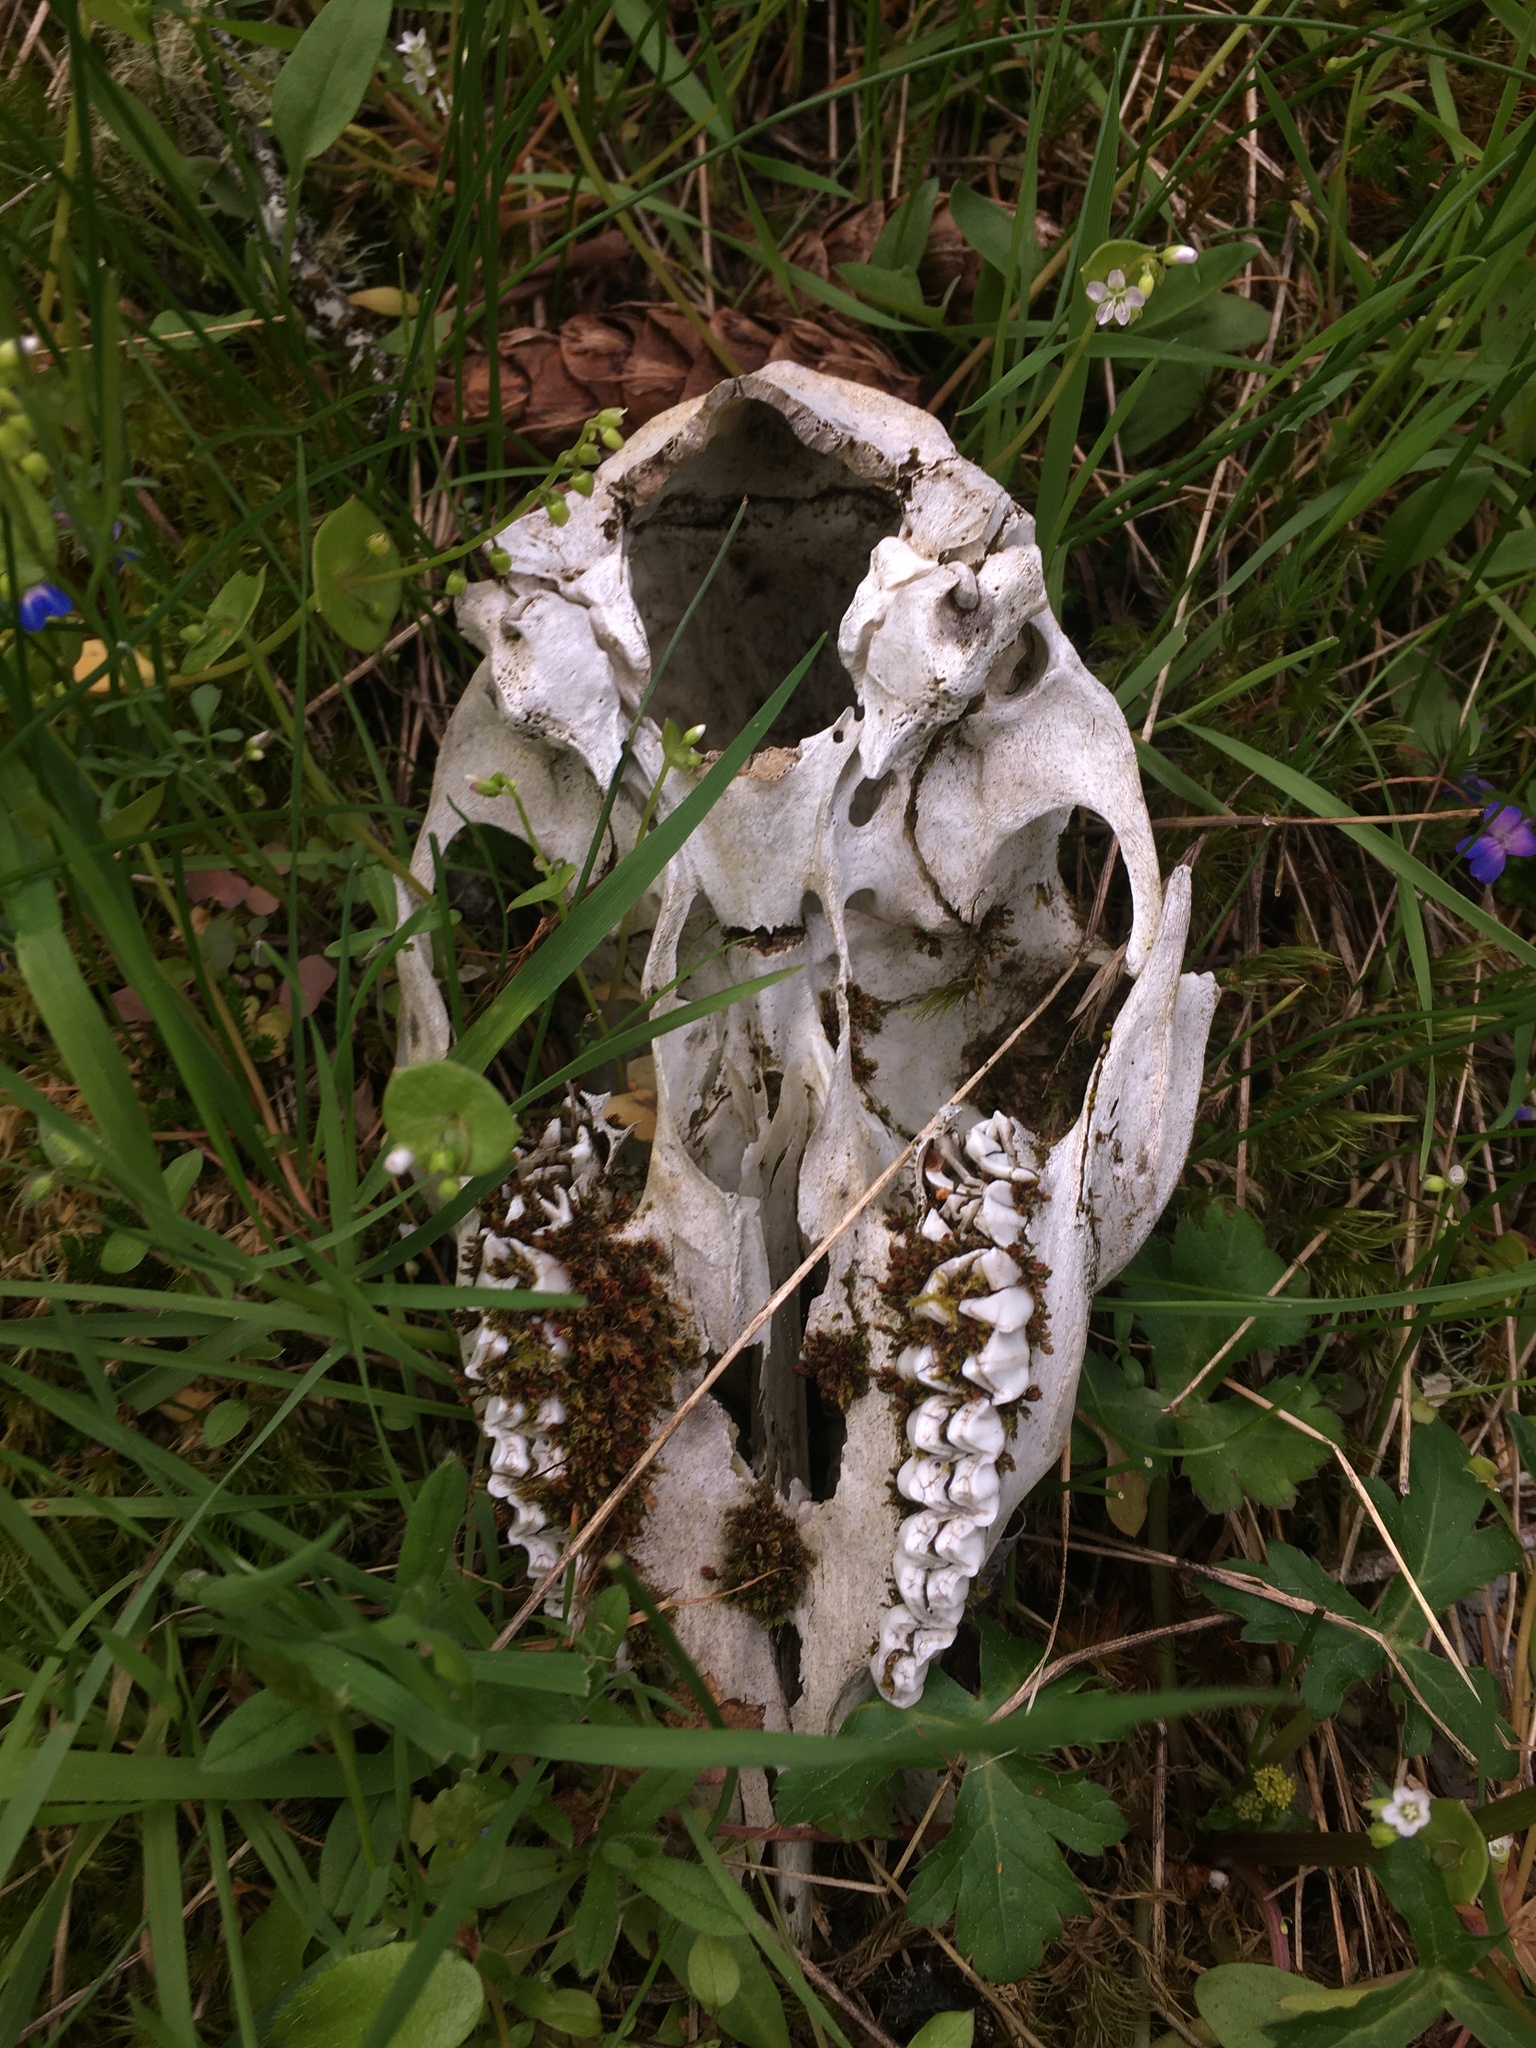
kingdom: Animalia
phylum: Chordata
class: Mammalia
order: Artiodactyla
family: Cervidae
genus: Odocoileus
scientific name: Odocoileus hemionus
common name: Mule deer
